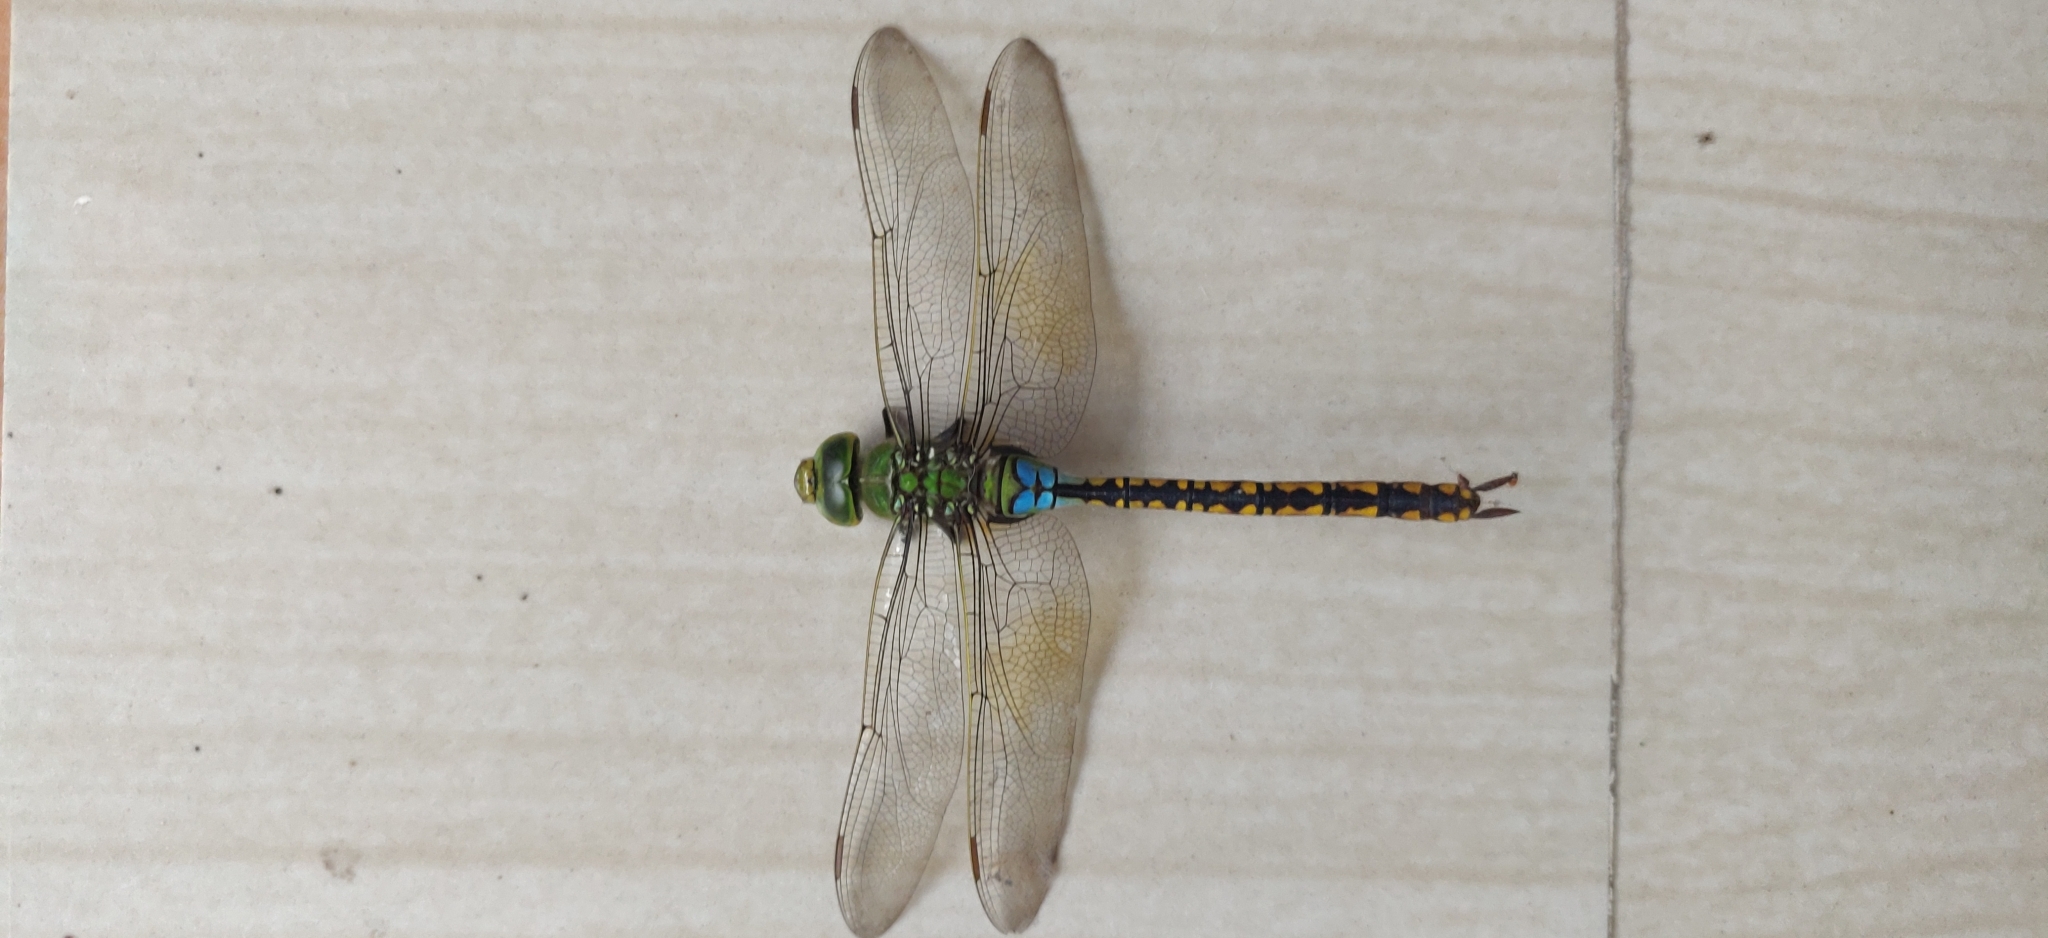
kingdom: Animalia
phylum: Arthropoda
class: Insecta
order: Odonata
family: Aeshnidae
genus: Anax
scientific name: Anax indicus
